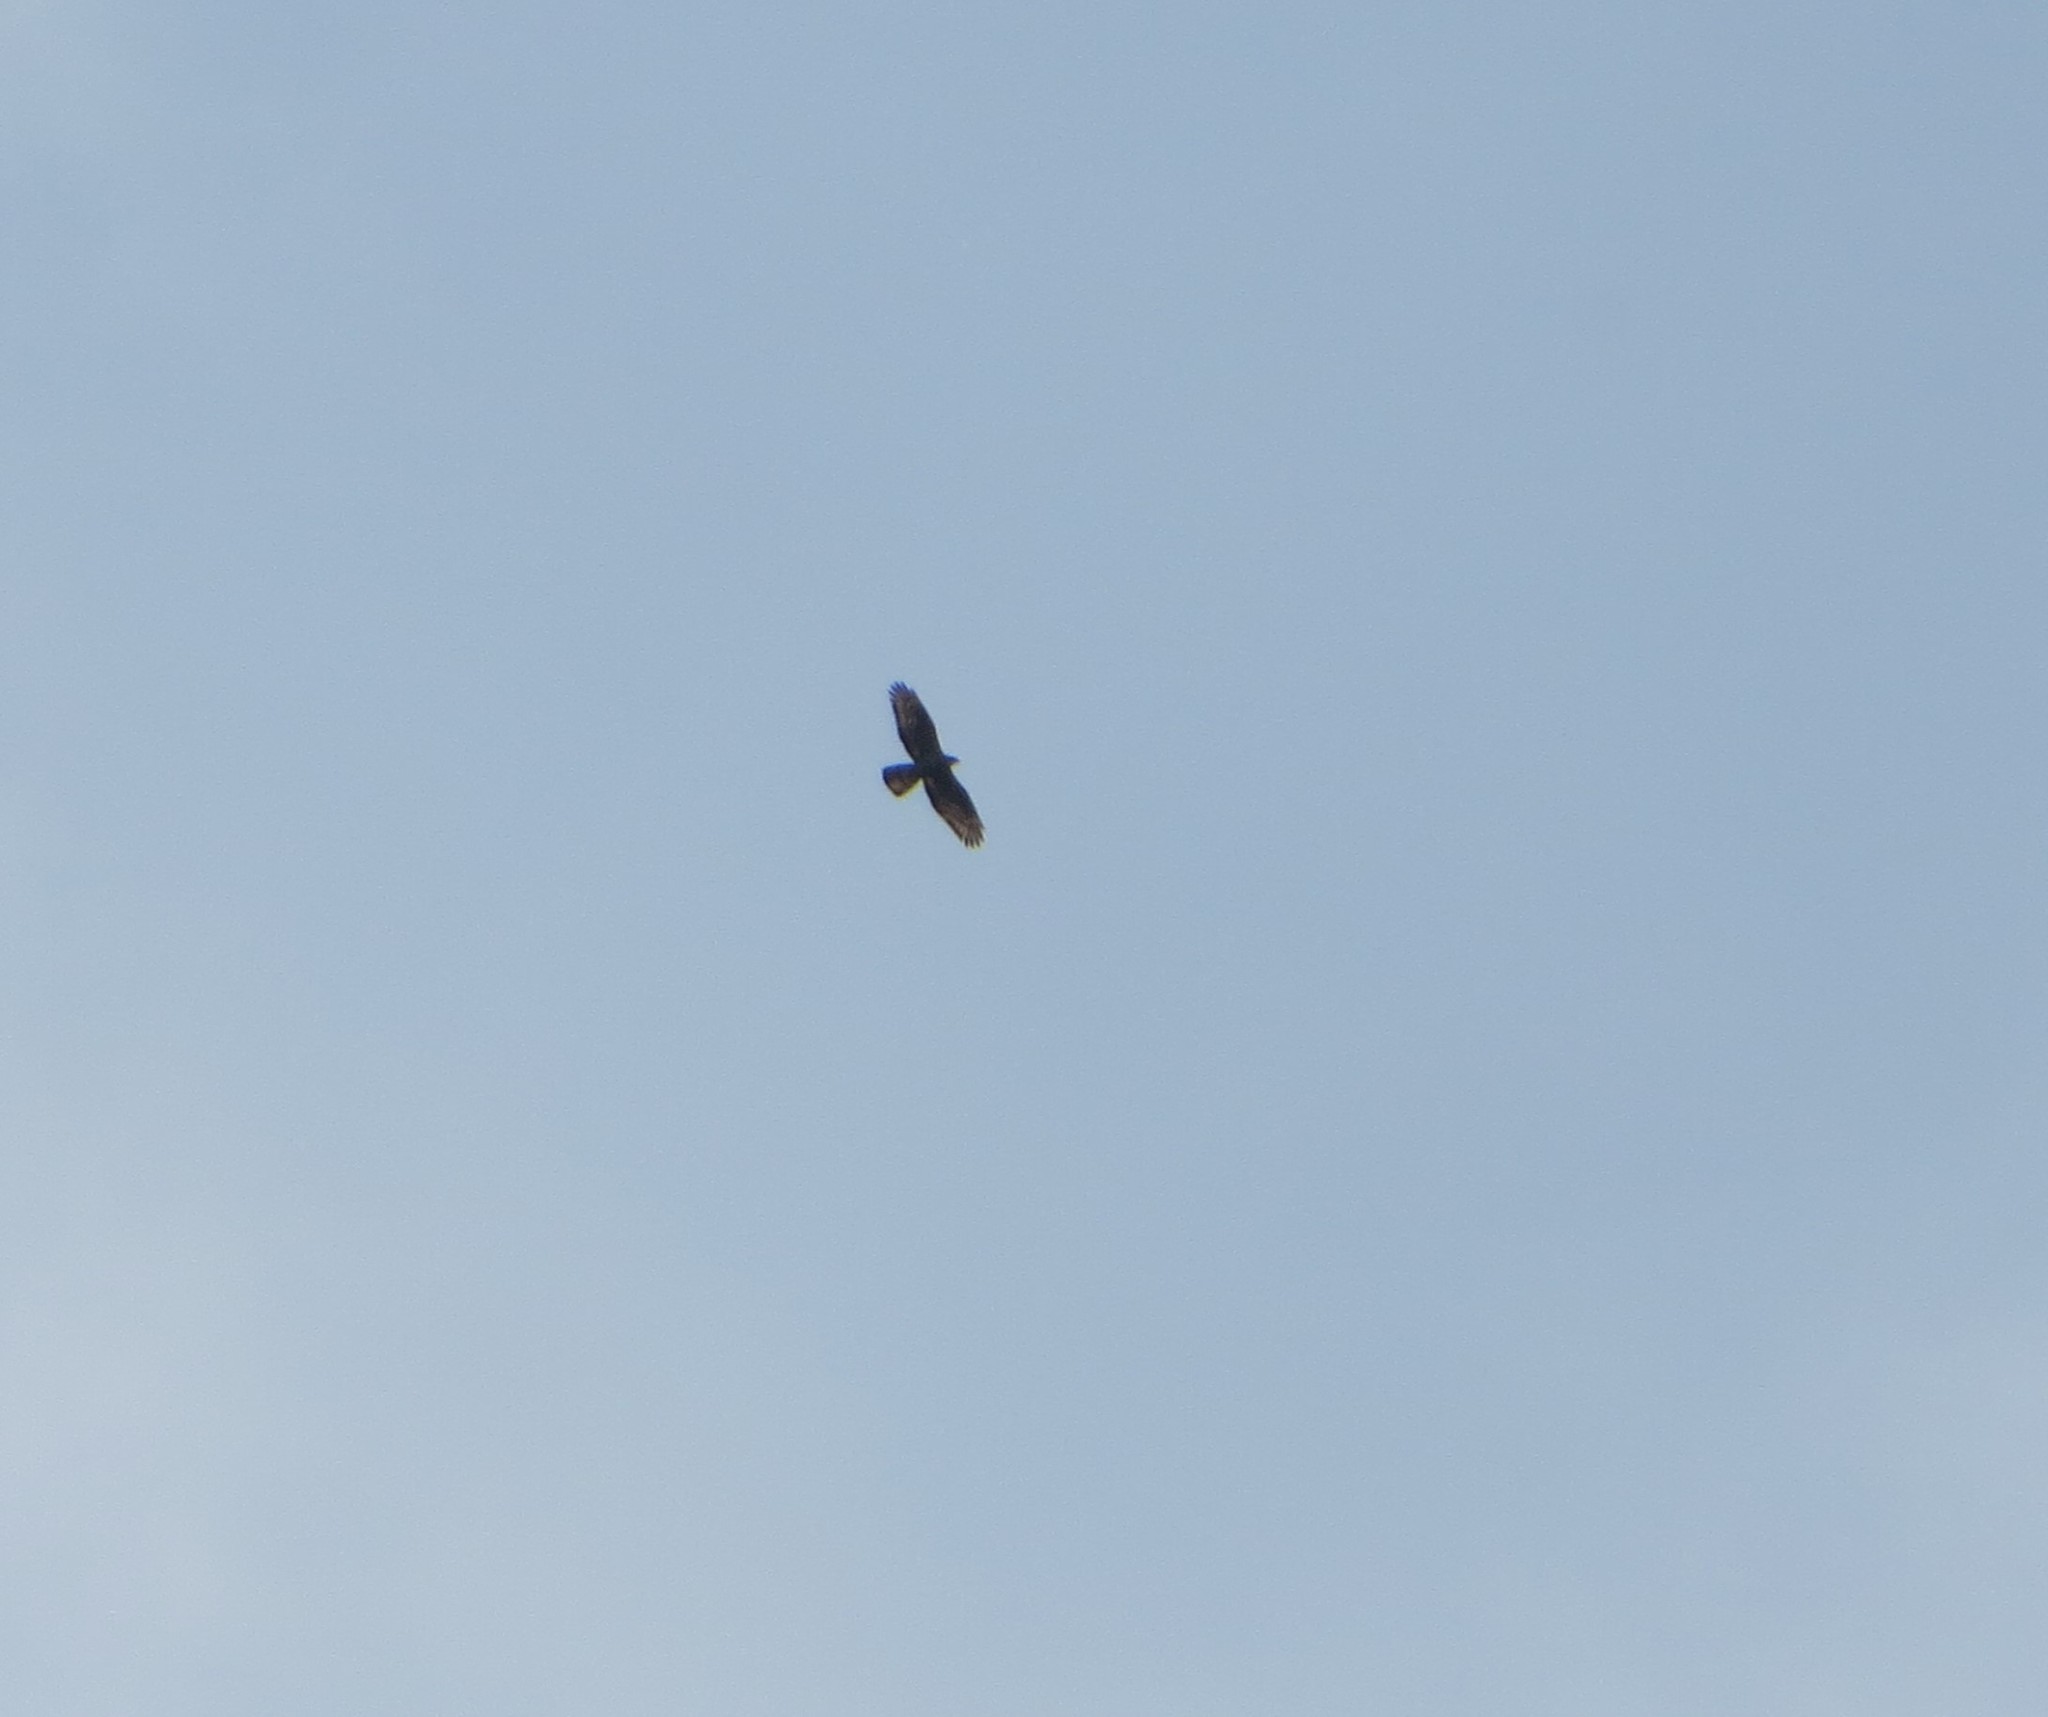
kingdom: Animalia
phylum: Chordata
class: Aves
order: Accipitriformes
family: Accipitridae
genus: Pernis
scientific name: Pernis apivorus
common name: European honey buzzard
